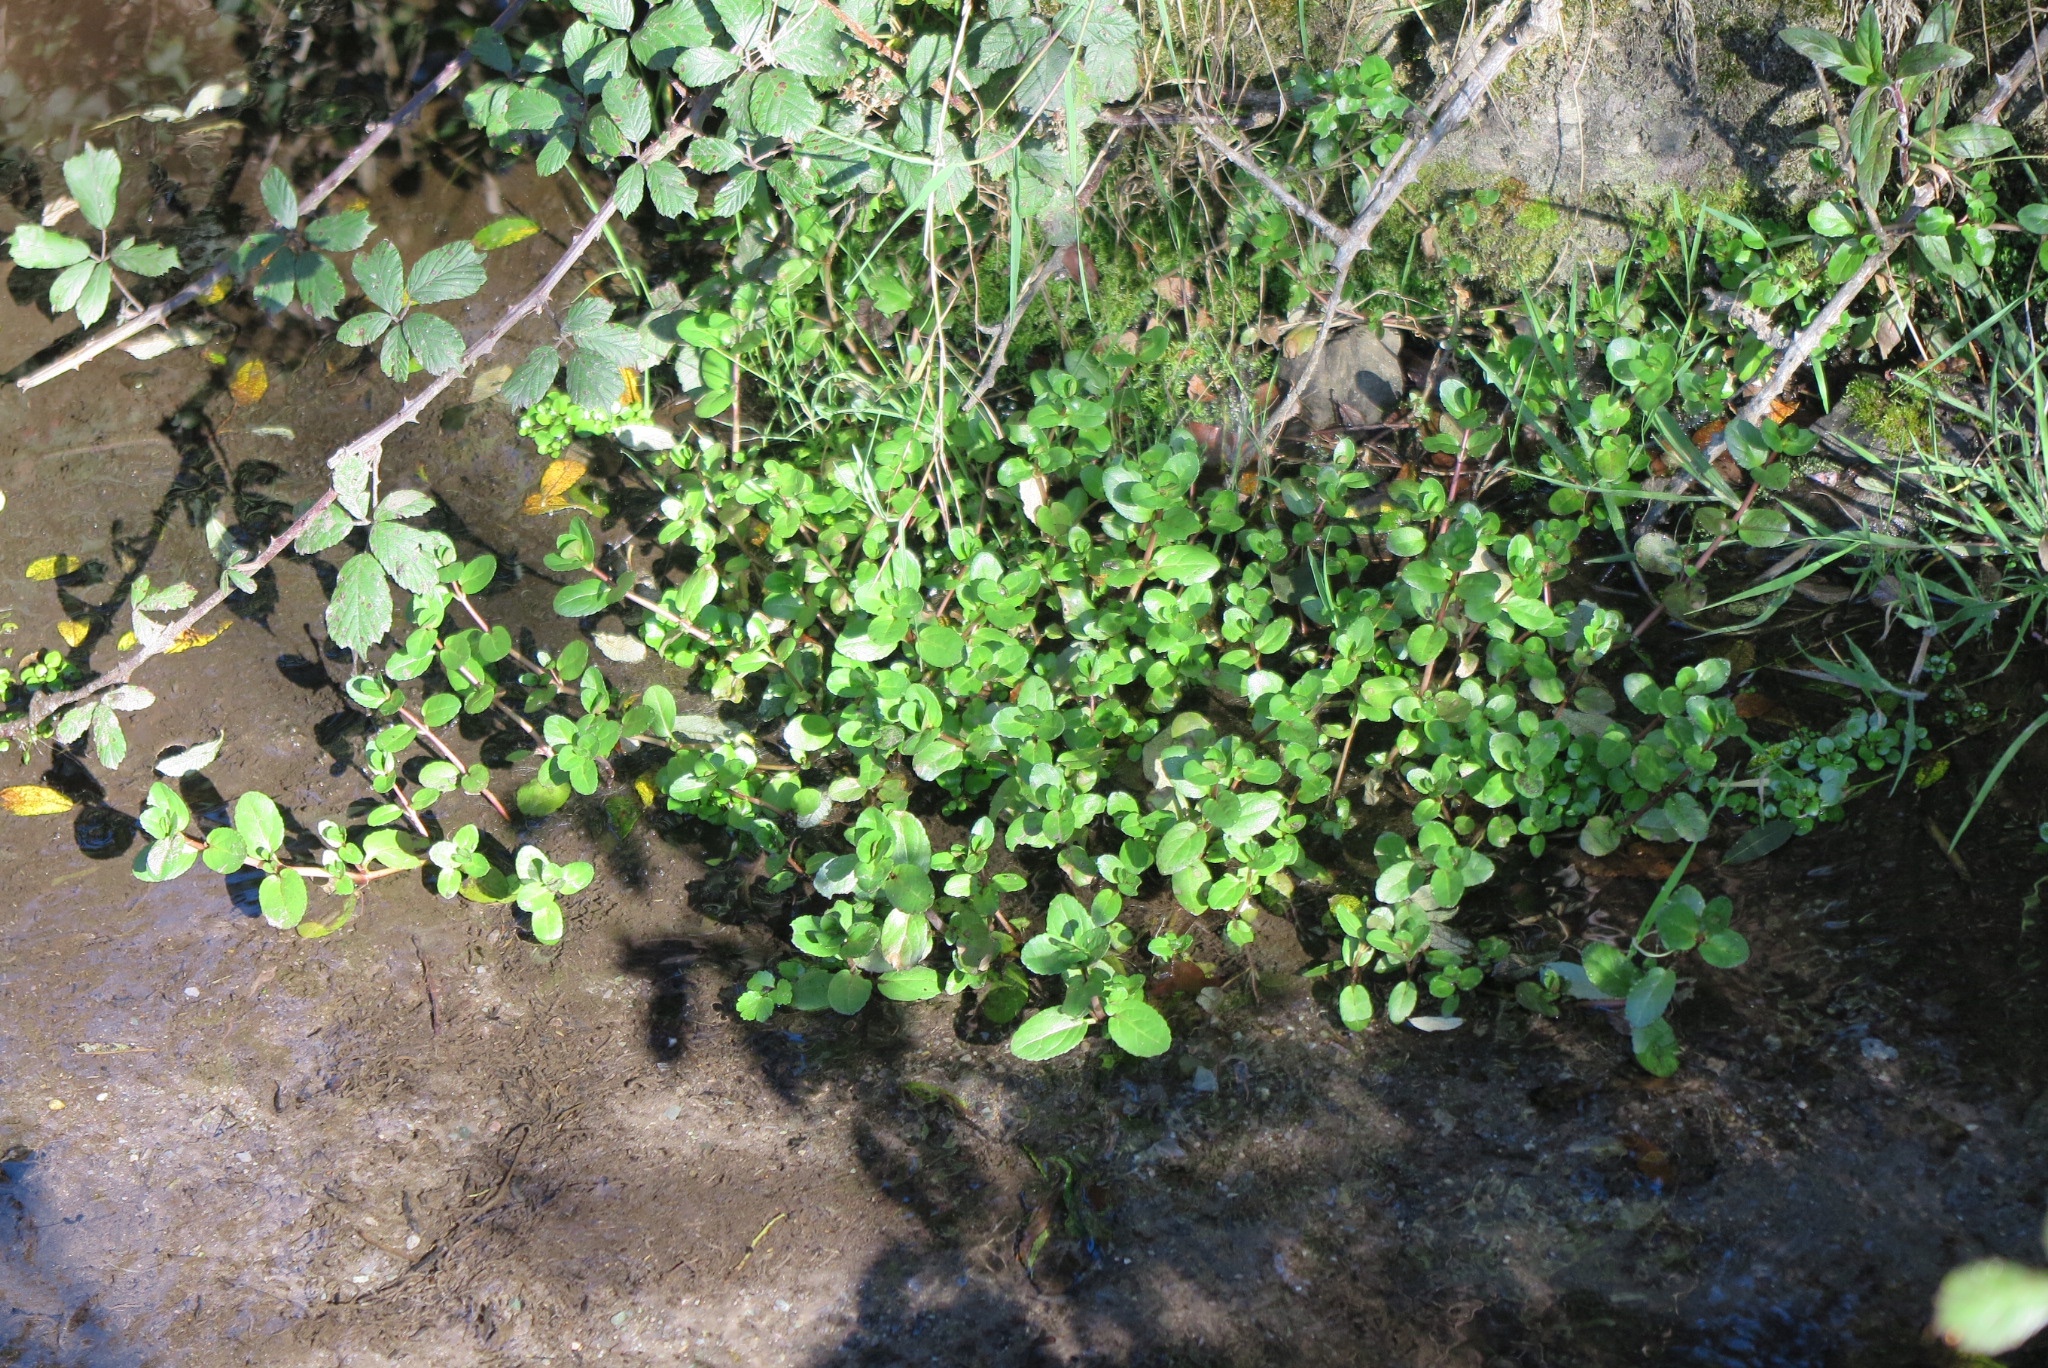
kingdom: Plantae
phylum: Tracheophyta
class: Magnoliopsida
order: Lamiales
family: Plantaginaceae
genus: Veronica
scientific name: Veronica beccabunga
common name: Brooklime
